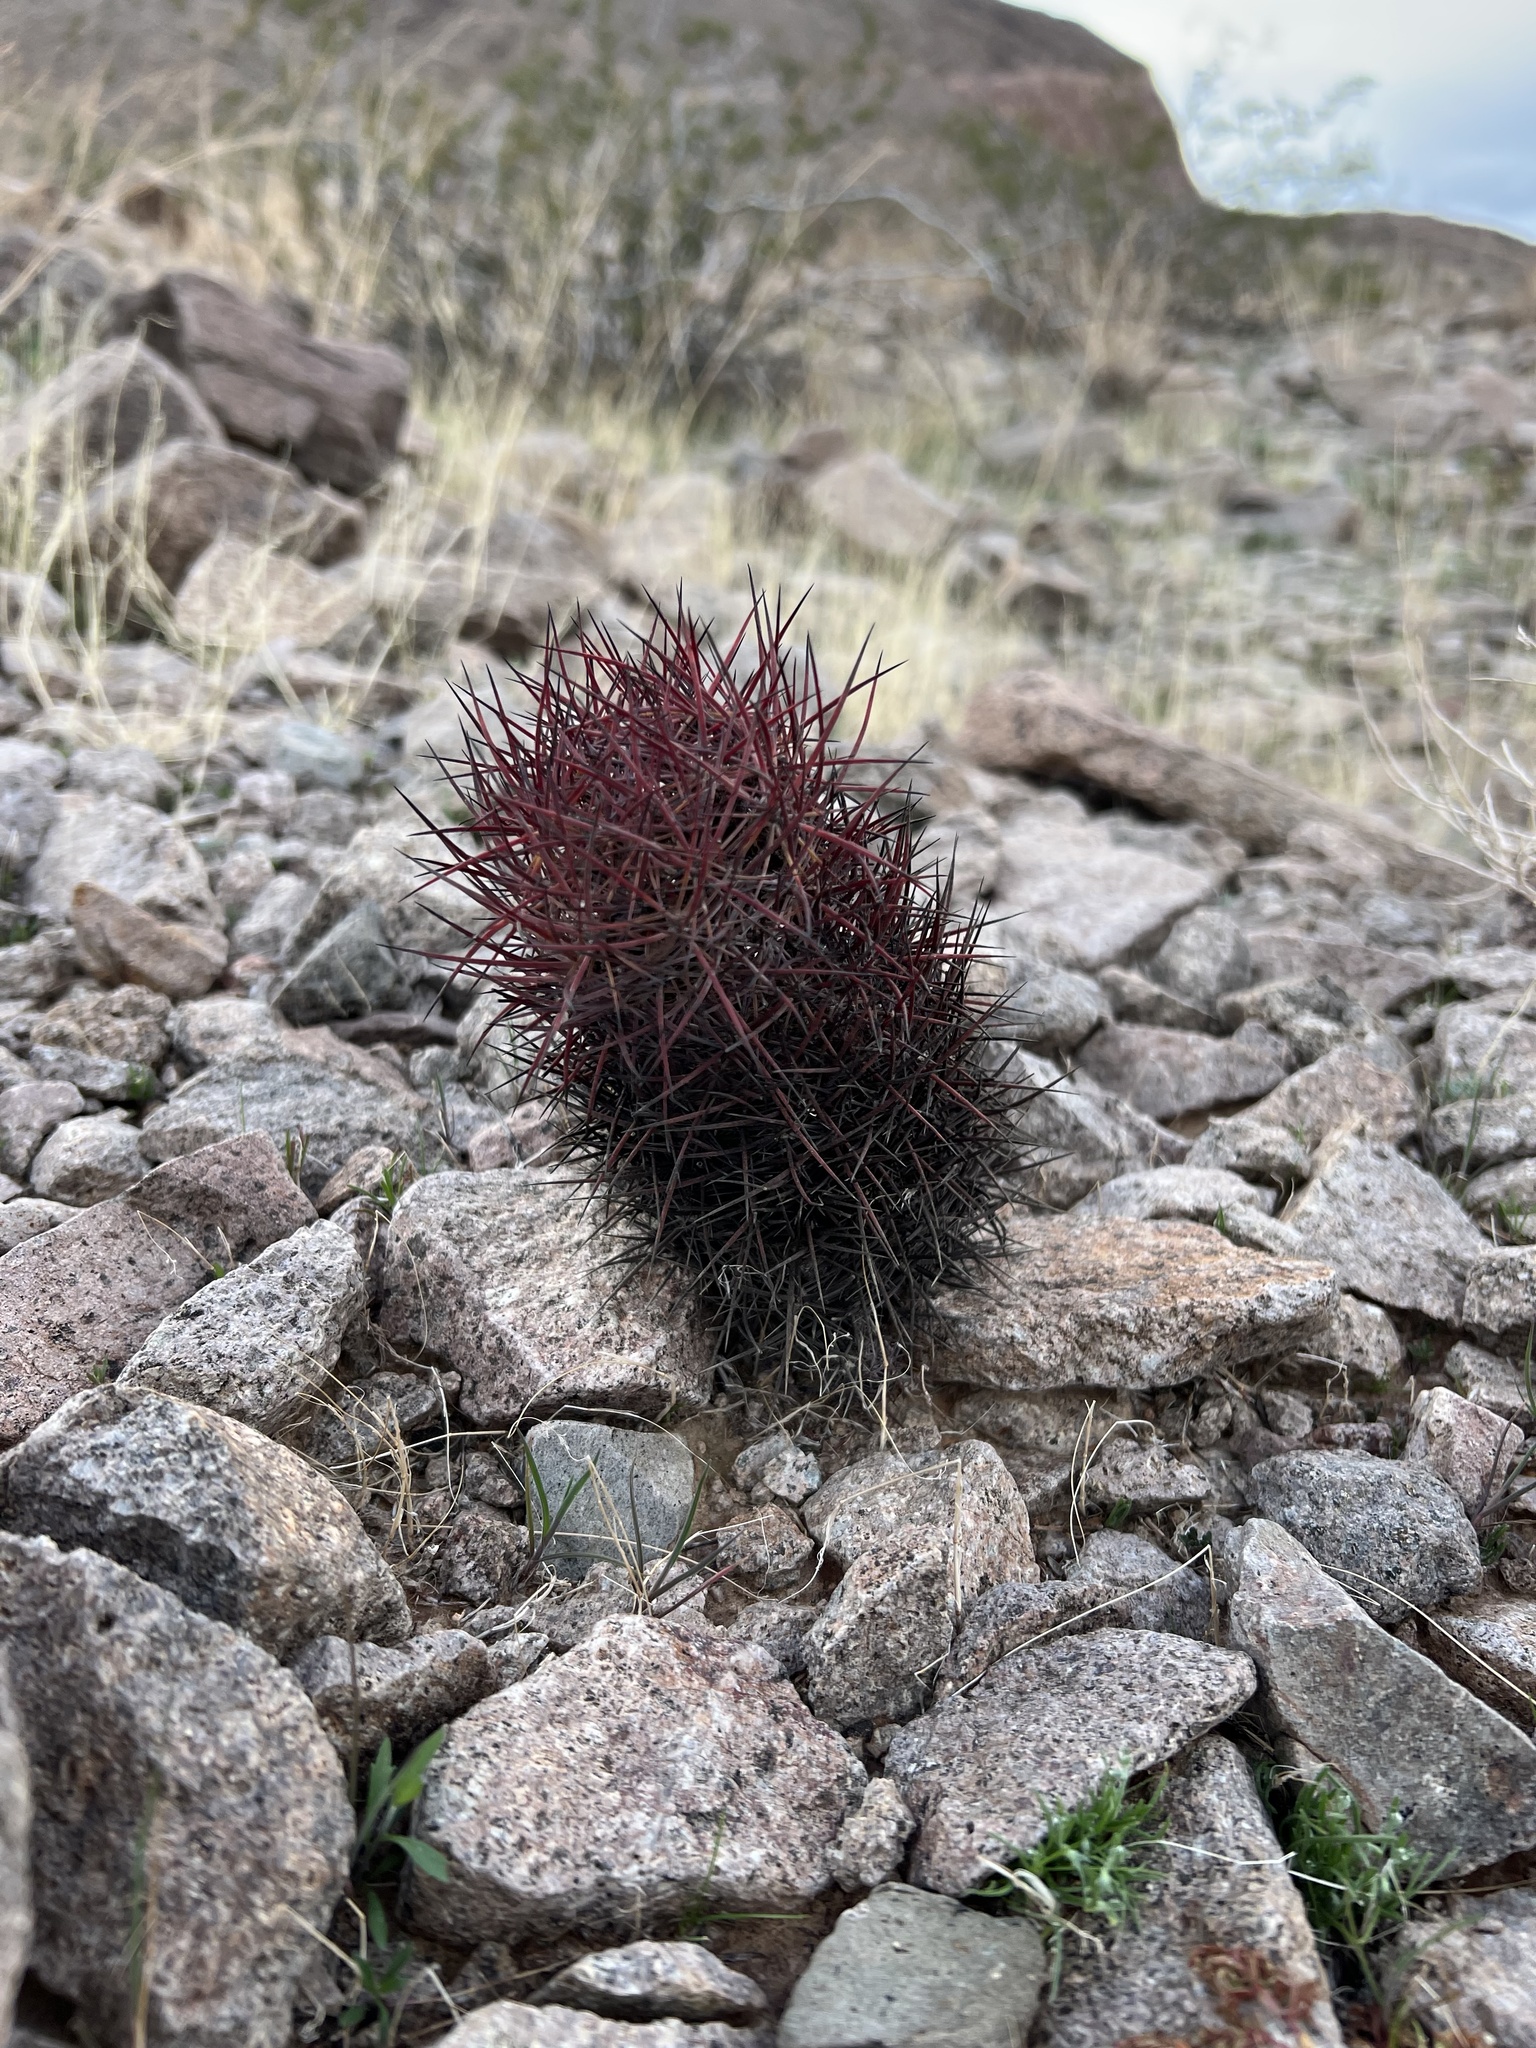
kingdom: Plantae
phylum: Tracheophyta
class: Magnoliopsida
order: Caryophyllales
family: Cactaceae
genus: Sclerocactus
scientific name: Sclerocactus johnsonii
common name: Eight-spine fishhook cactus
